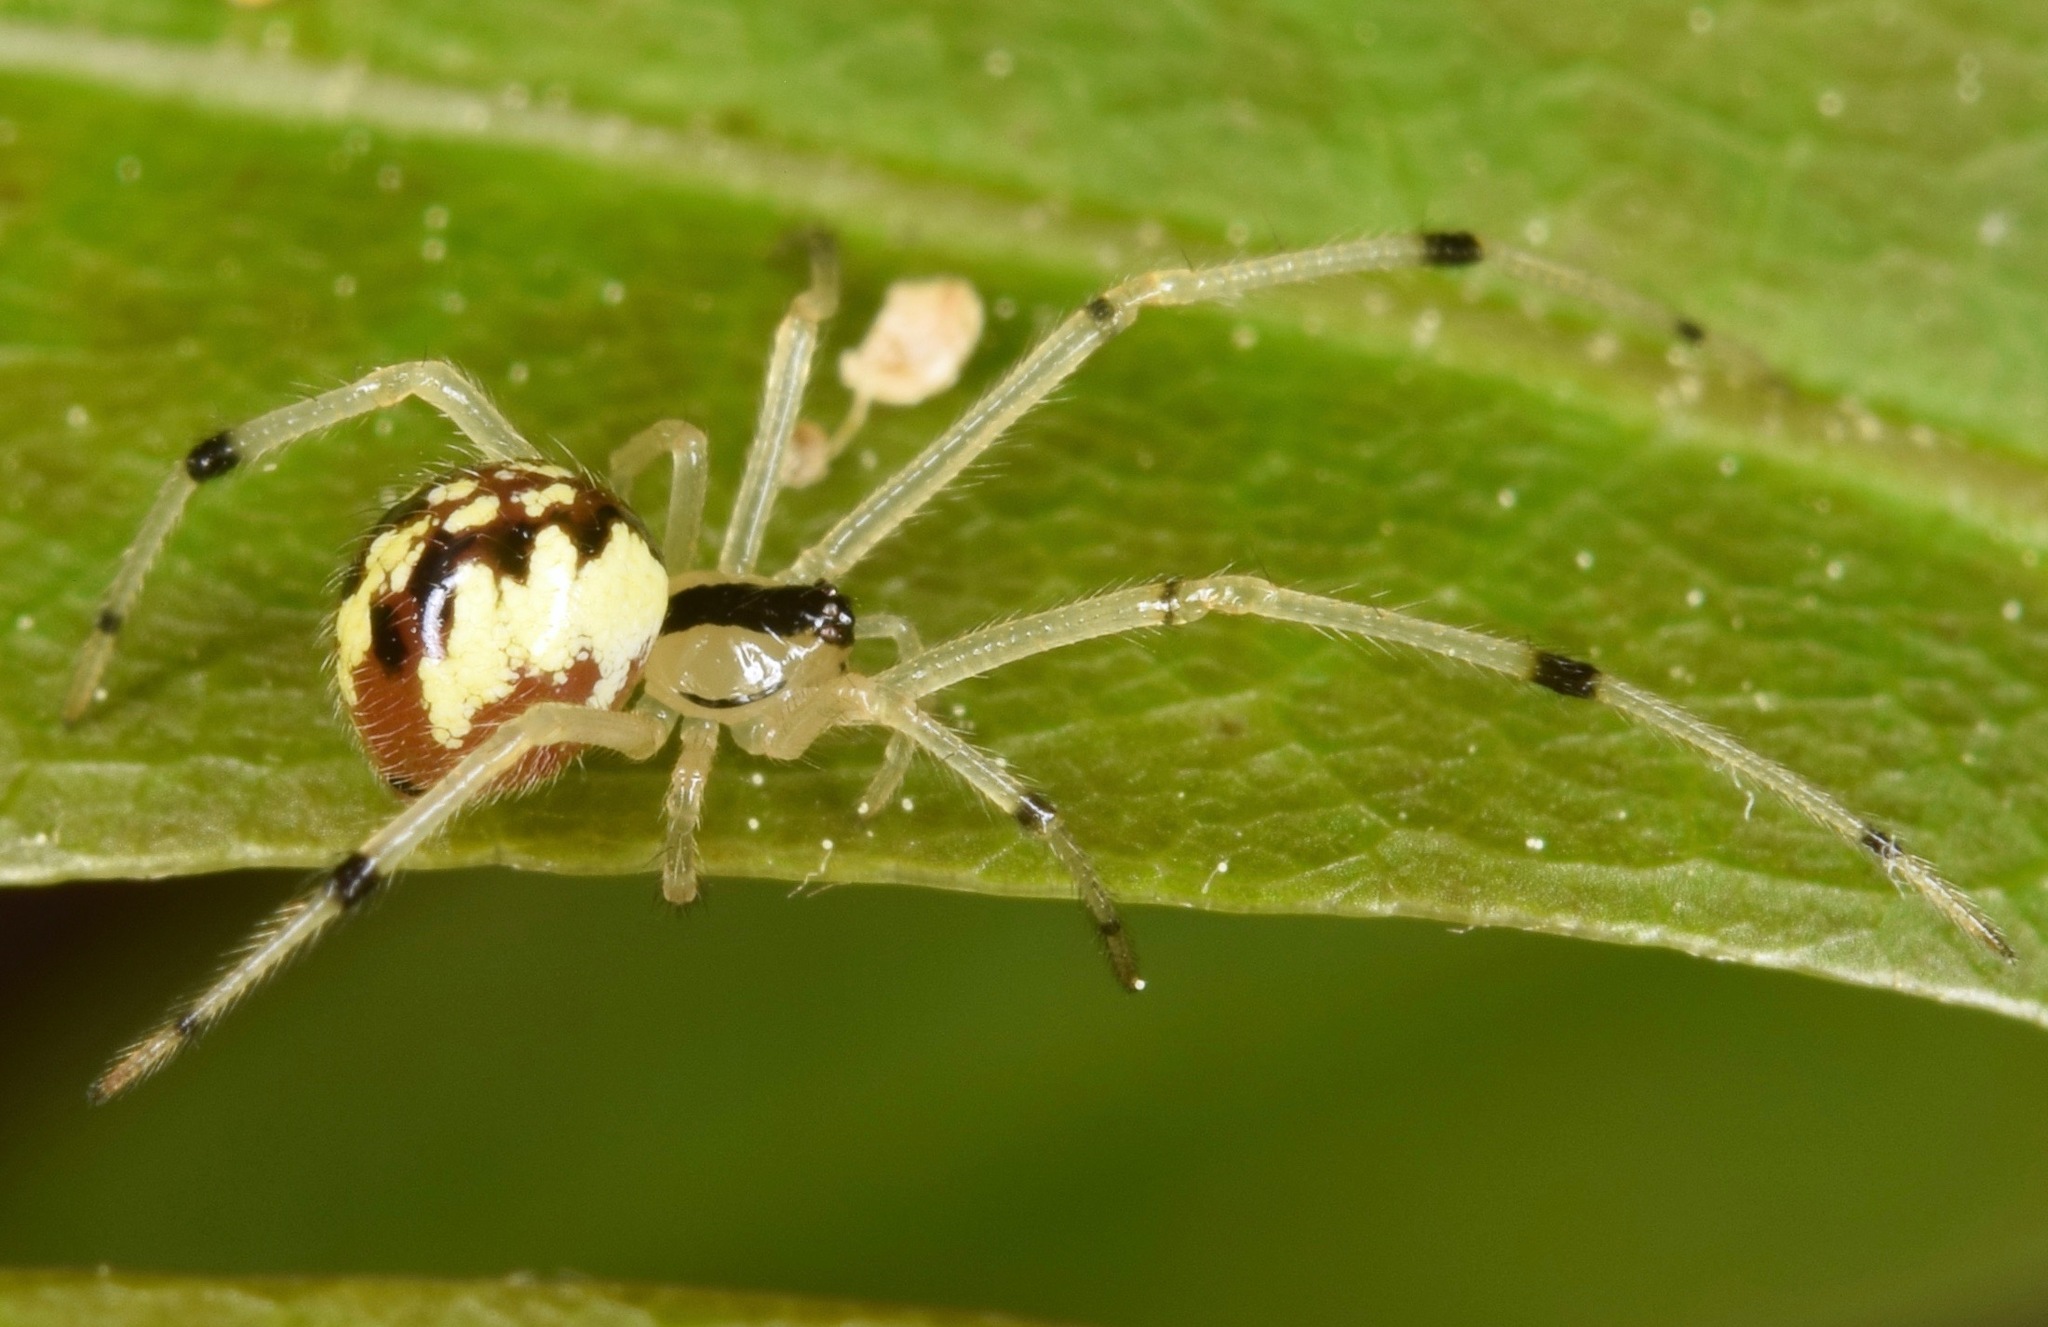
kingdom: Animalia
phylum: Arthropoda
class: Arachnida
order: Araneae
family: Theridiidae
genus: Phylloneta
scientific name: Phylloneta pictipes
